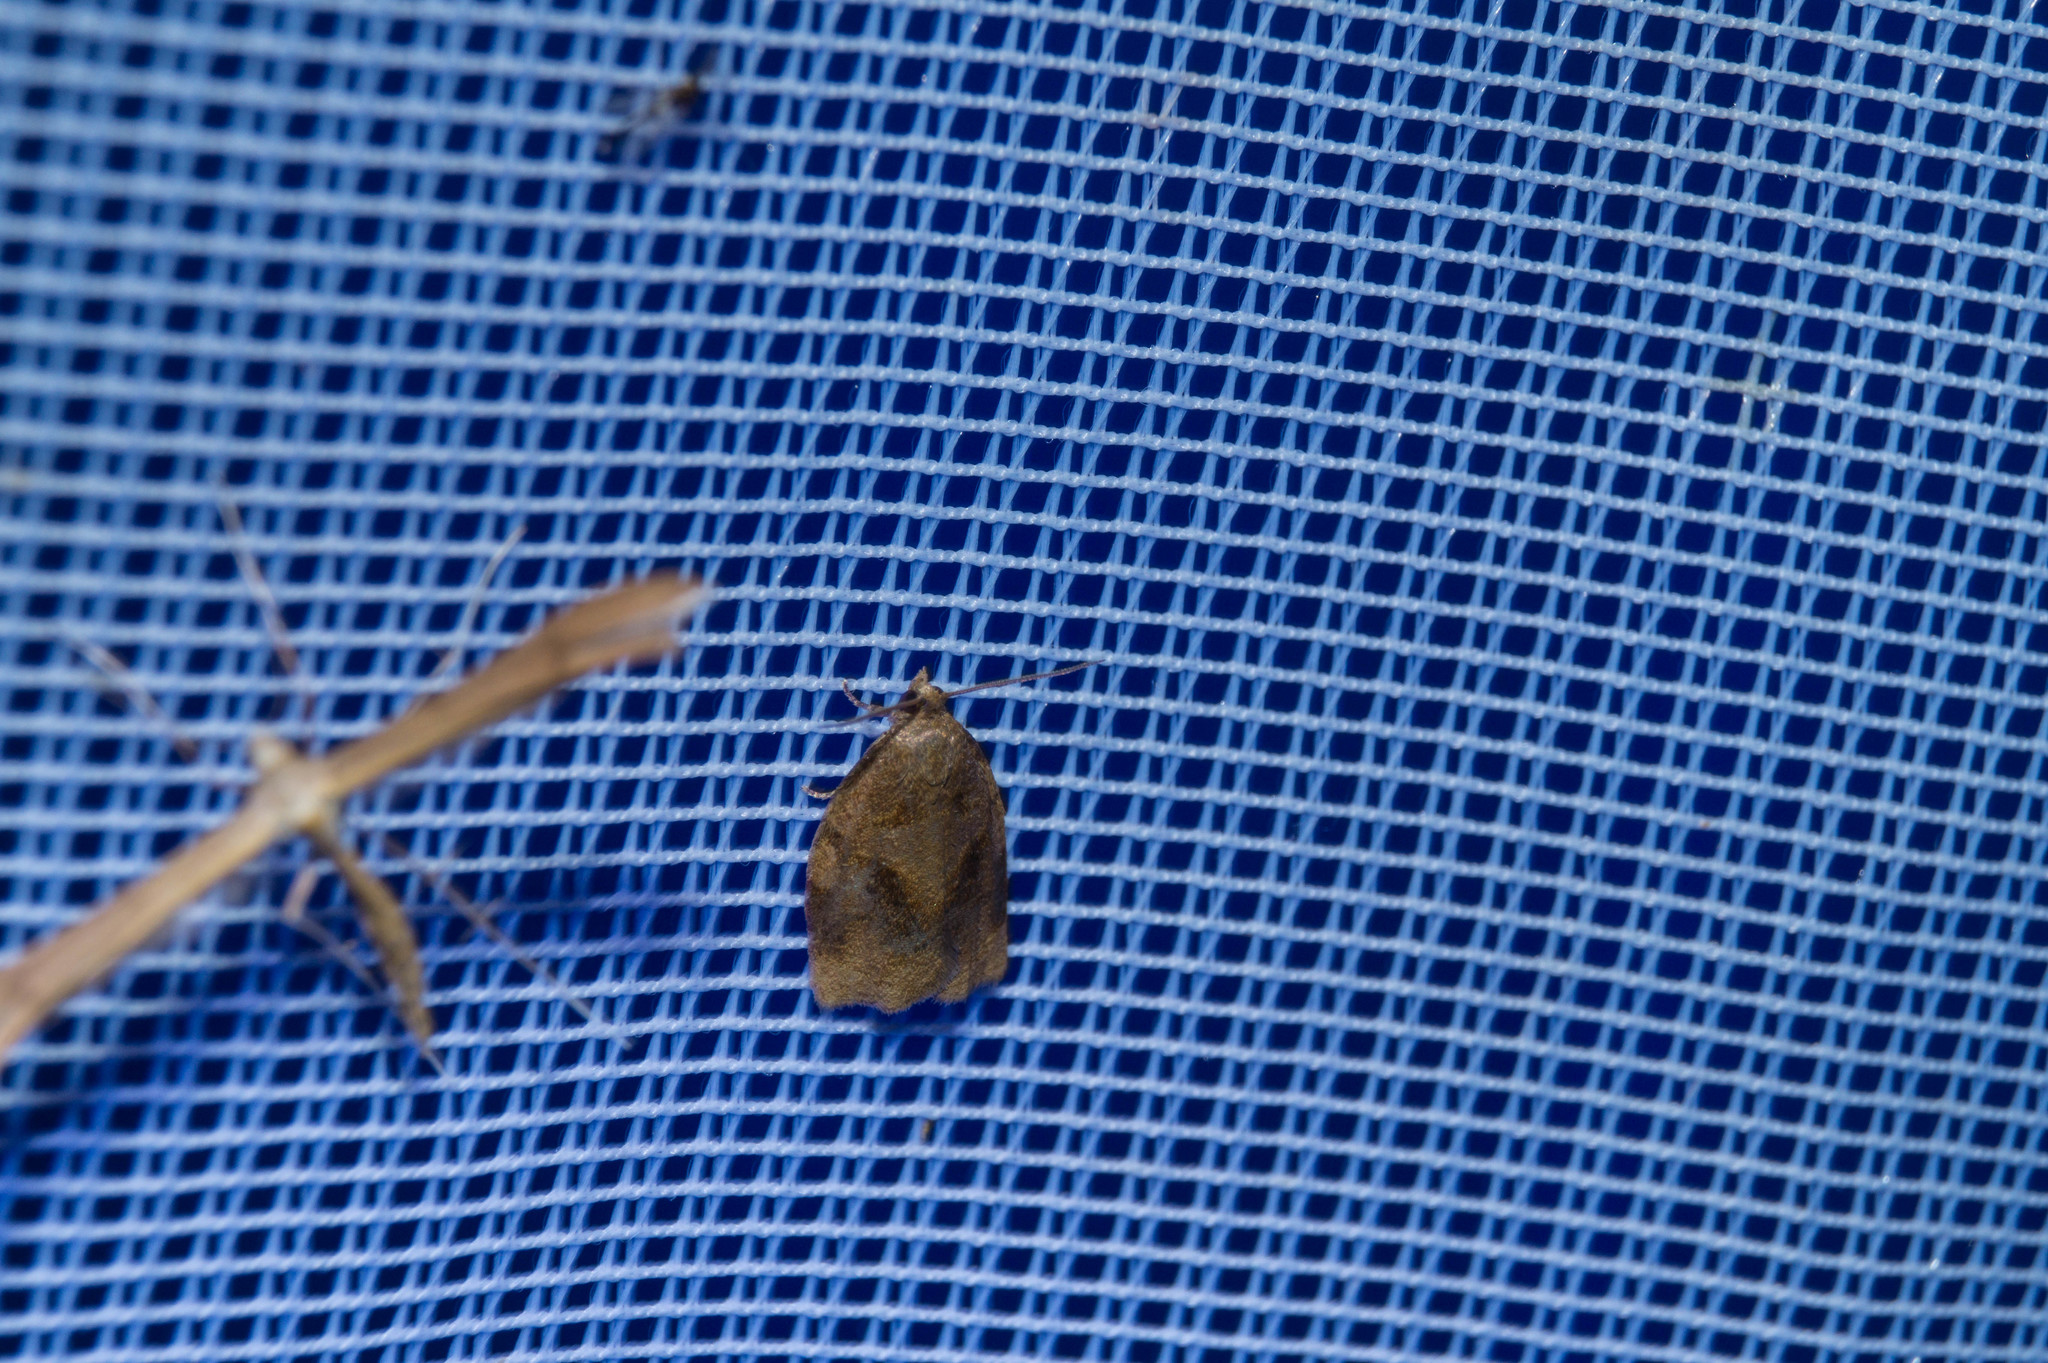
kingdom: Animalia
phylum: Arthropoda
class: Insecta
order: Lepidoptera
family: Tortricidae
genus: Archips
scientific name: Archips rosana
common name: Rose tortrix
